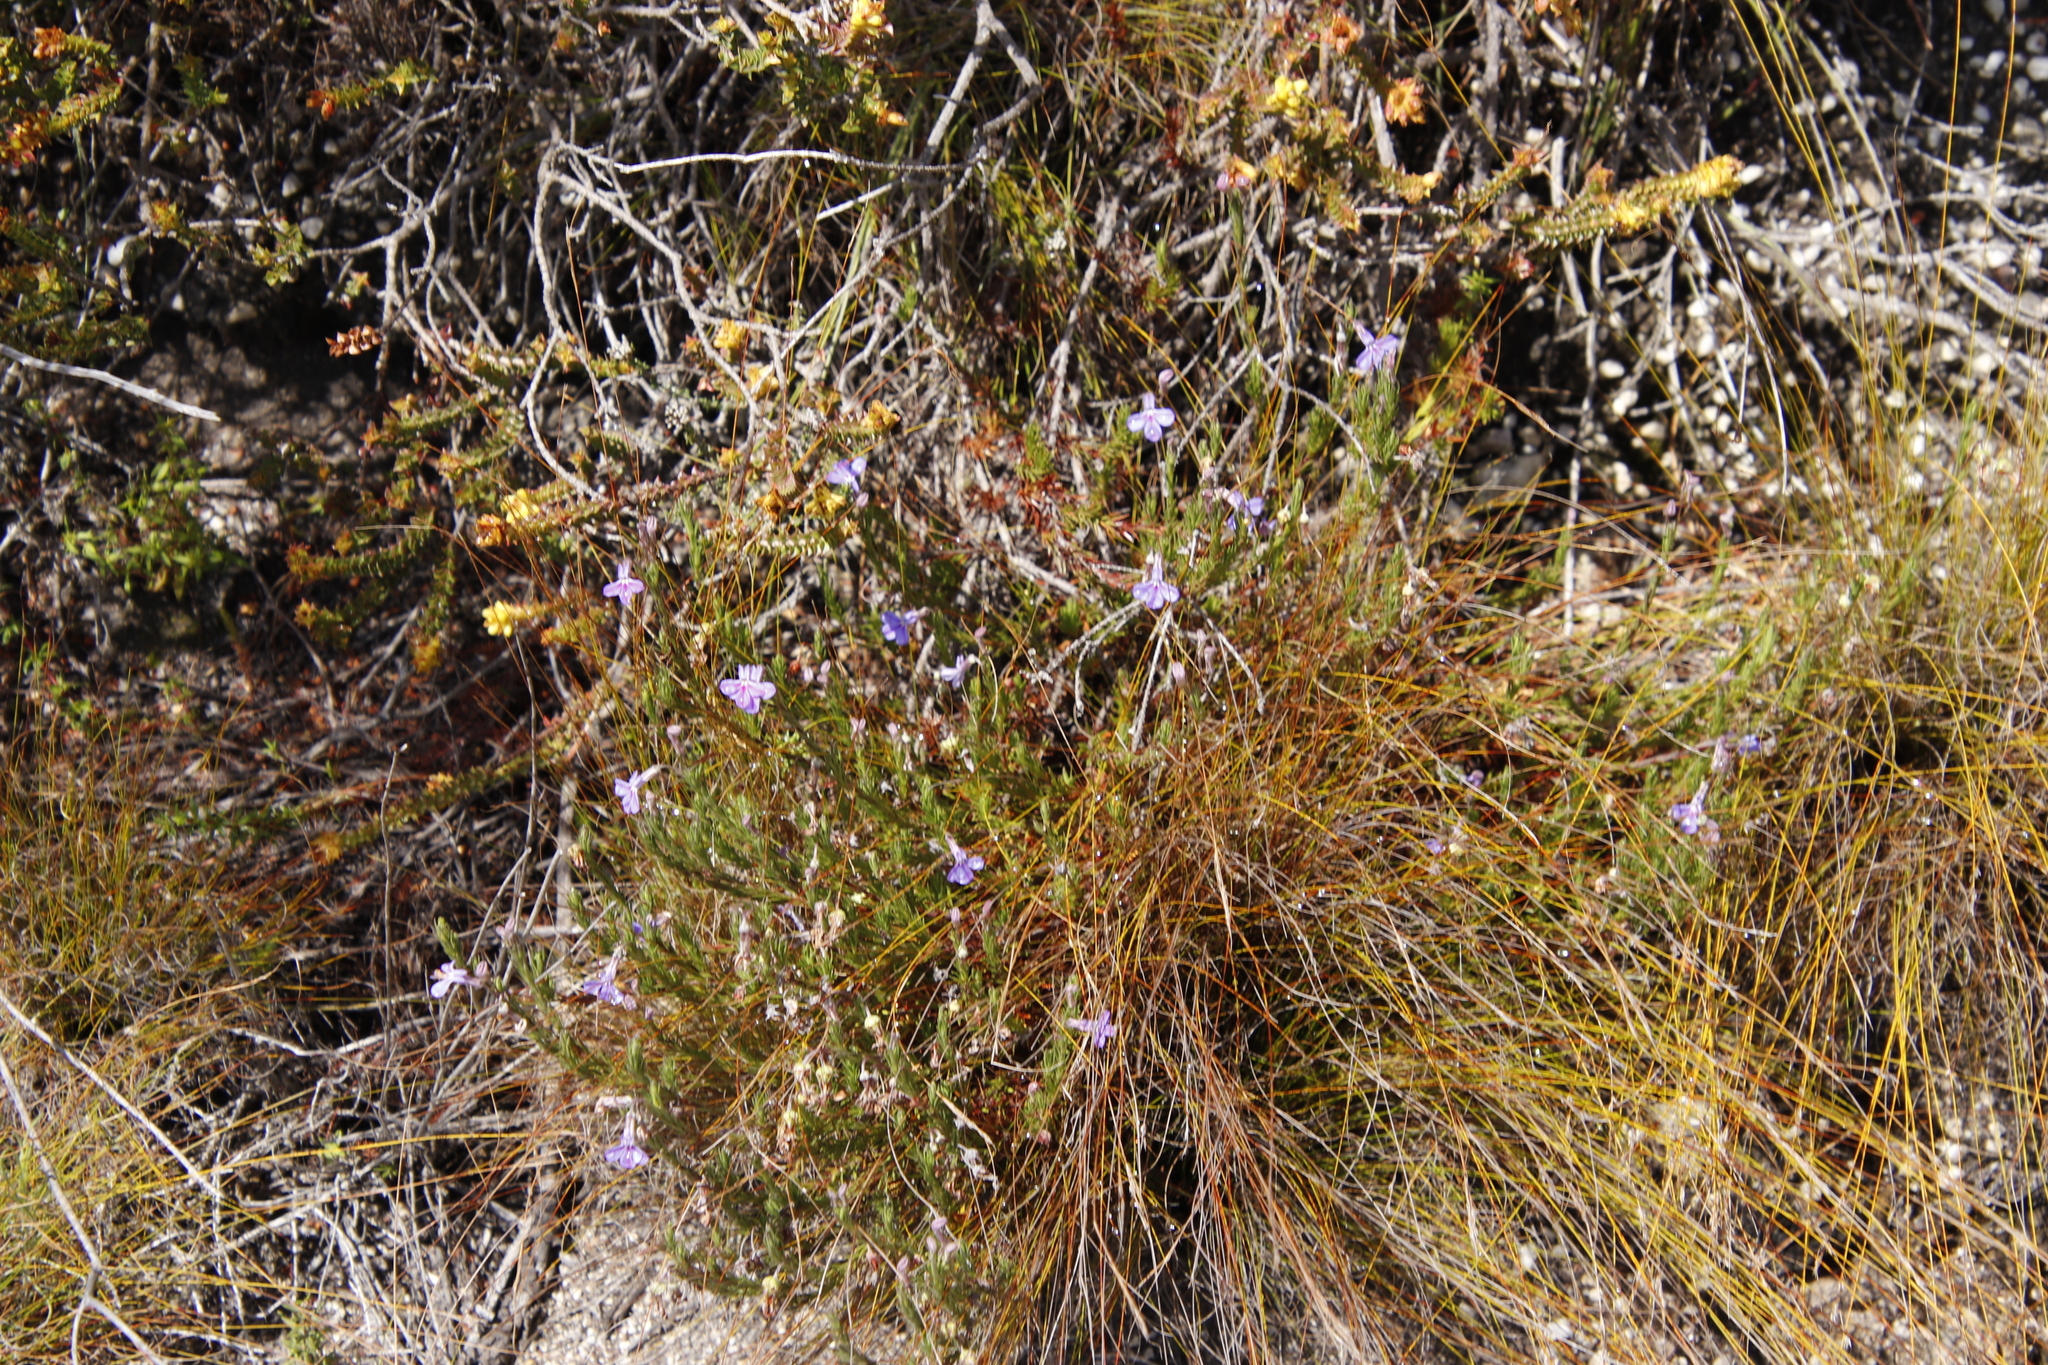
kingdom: Plantae
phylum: Tracheophyta
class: Magnoliopsida
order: Asterales
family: Campanulaceae
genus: Lobelia
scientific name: Lobelia pinifolia
